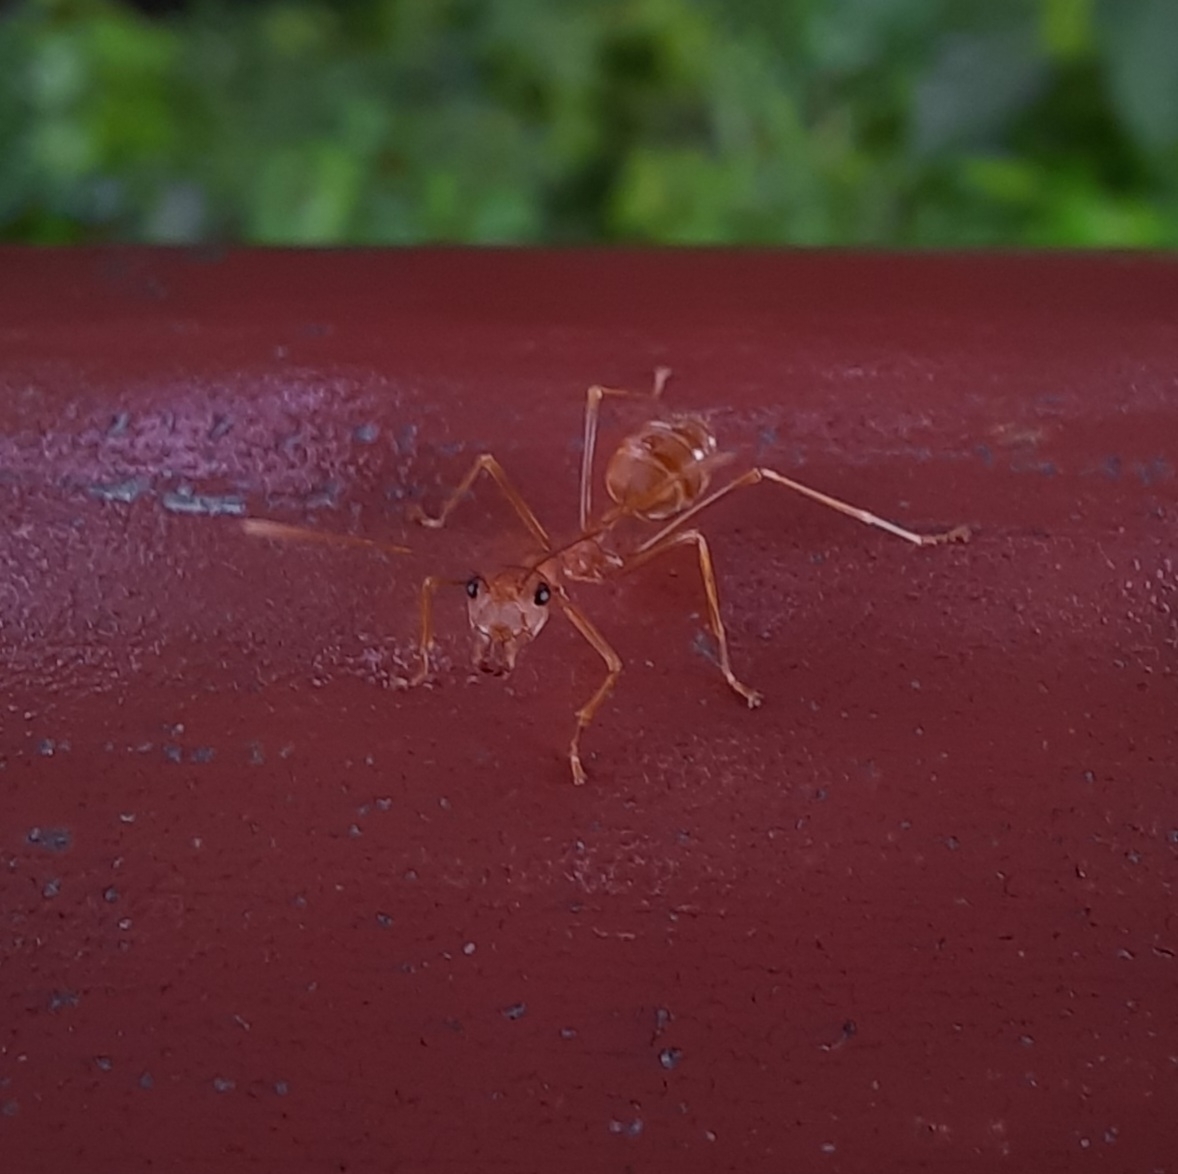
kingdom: Animalia
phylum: Arthropoda
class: Insecta
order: Hymenoptera
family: Formicidae
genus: Oecophylla
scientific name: Oecophylla smaragdina
